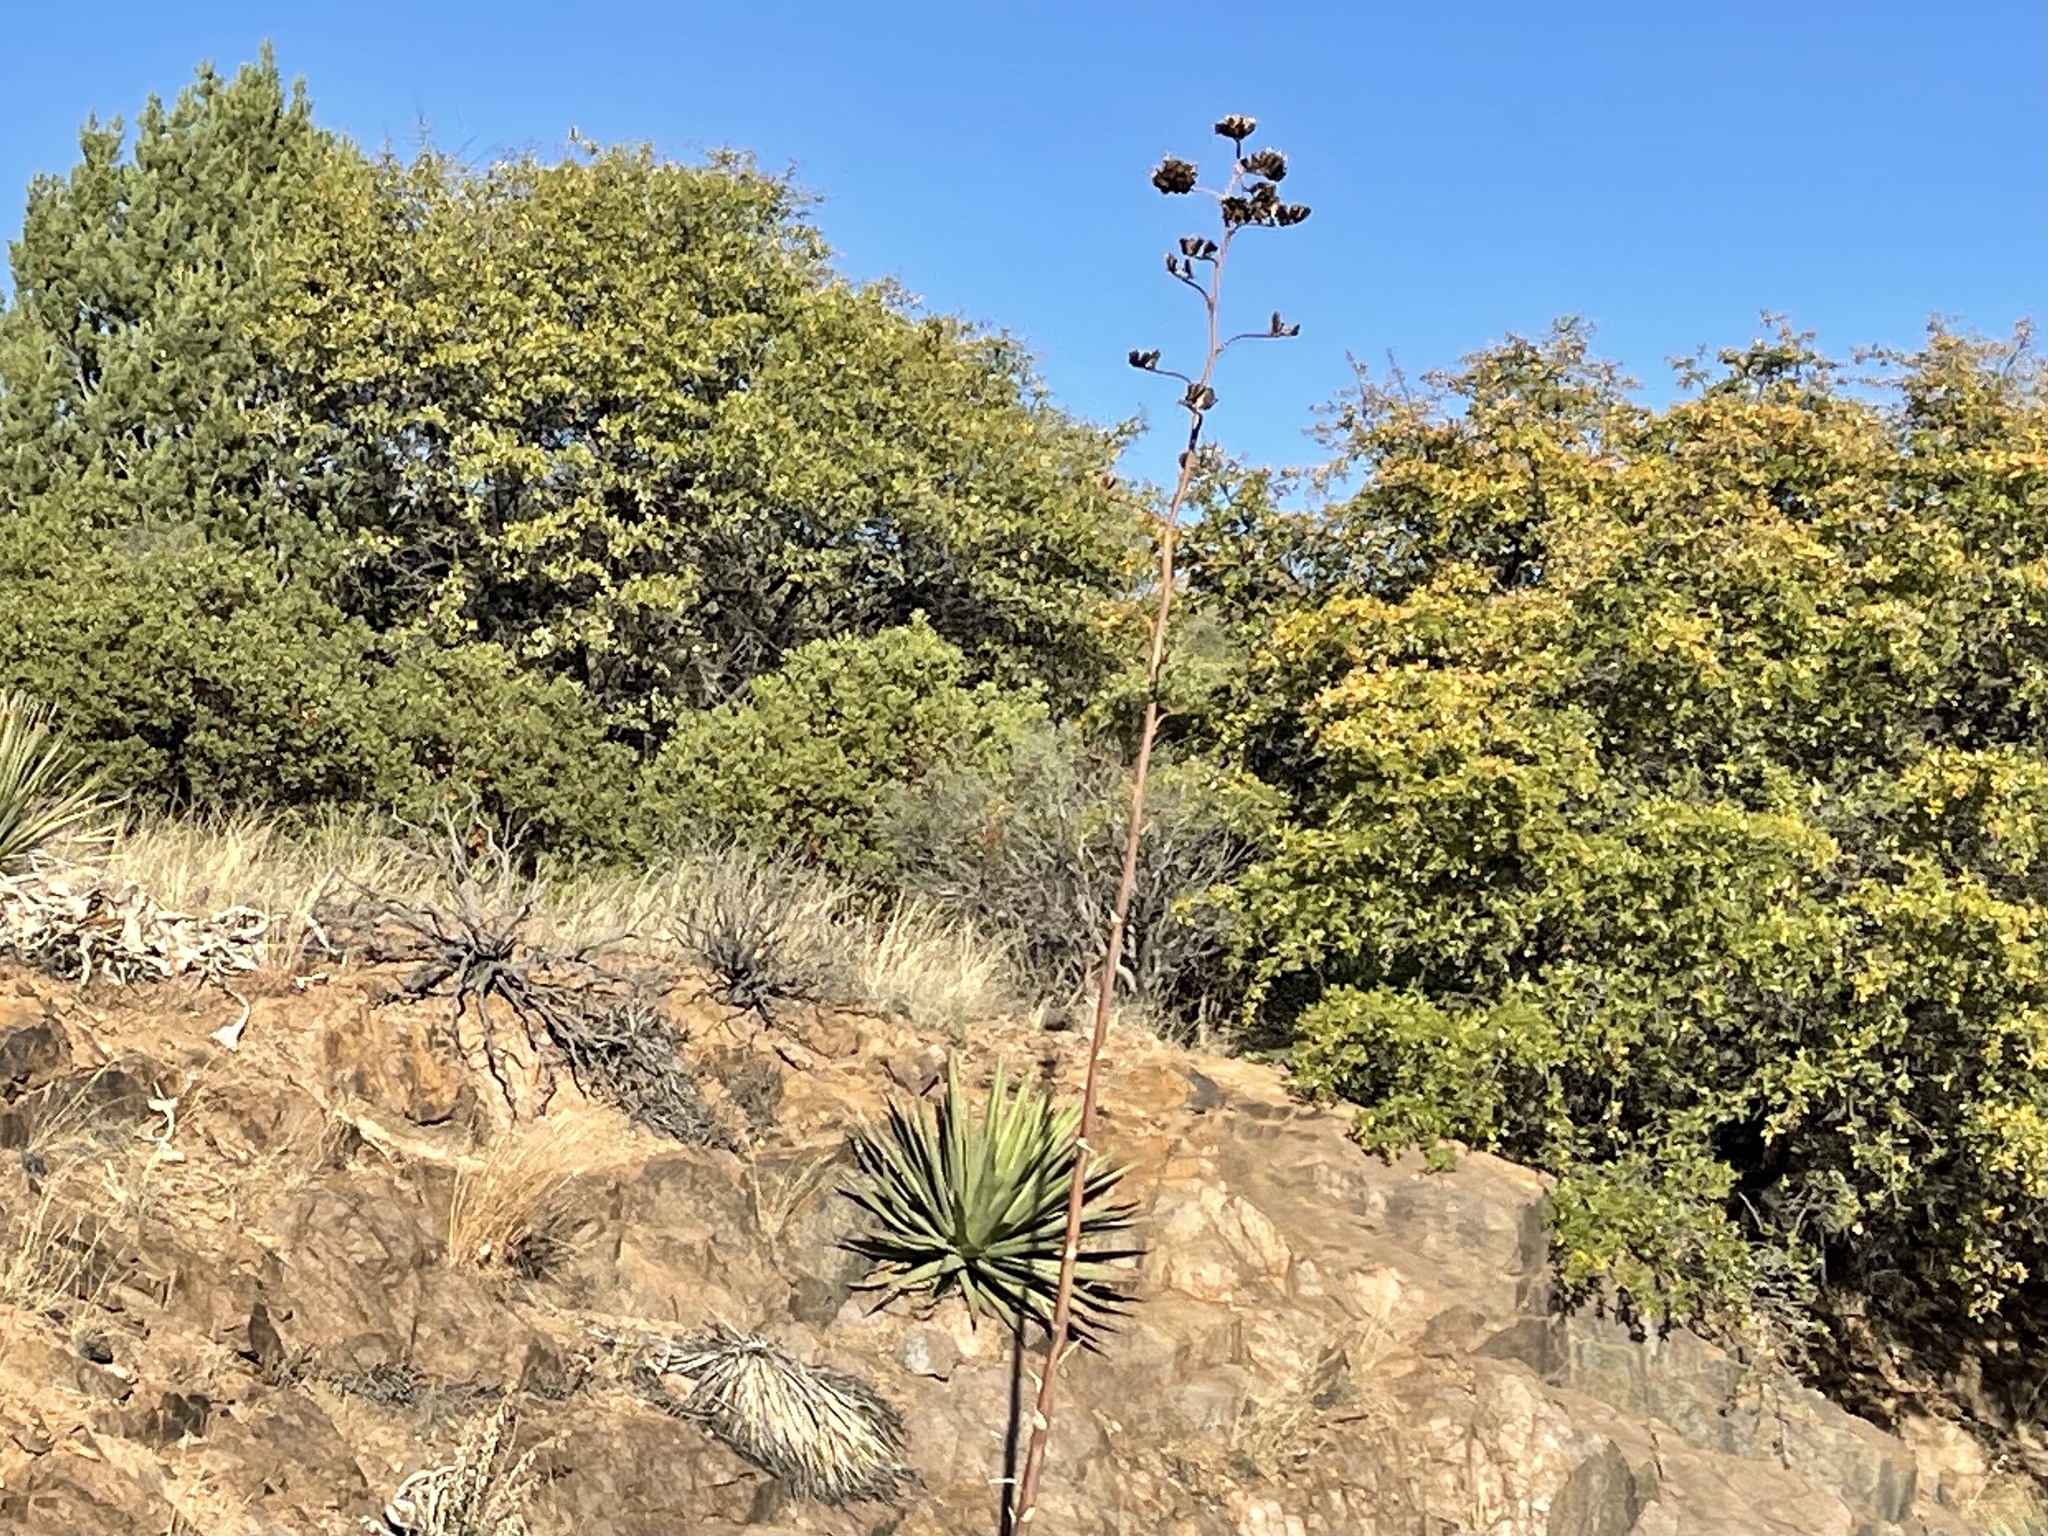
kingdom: Plantae
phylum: Tracheophyta
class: Liliopsida
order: Asparagales
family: Asparagaceae
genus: Agave
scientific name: Agave palmeri
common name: Palmer agave
